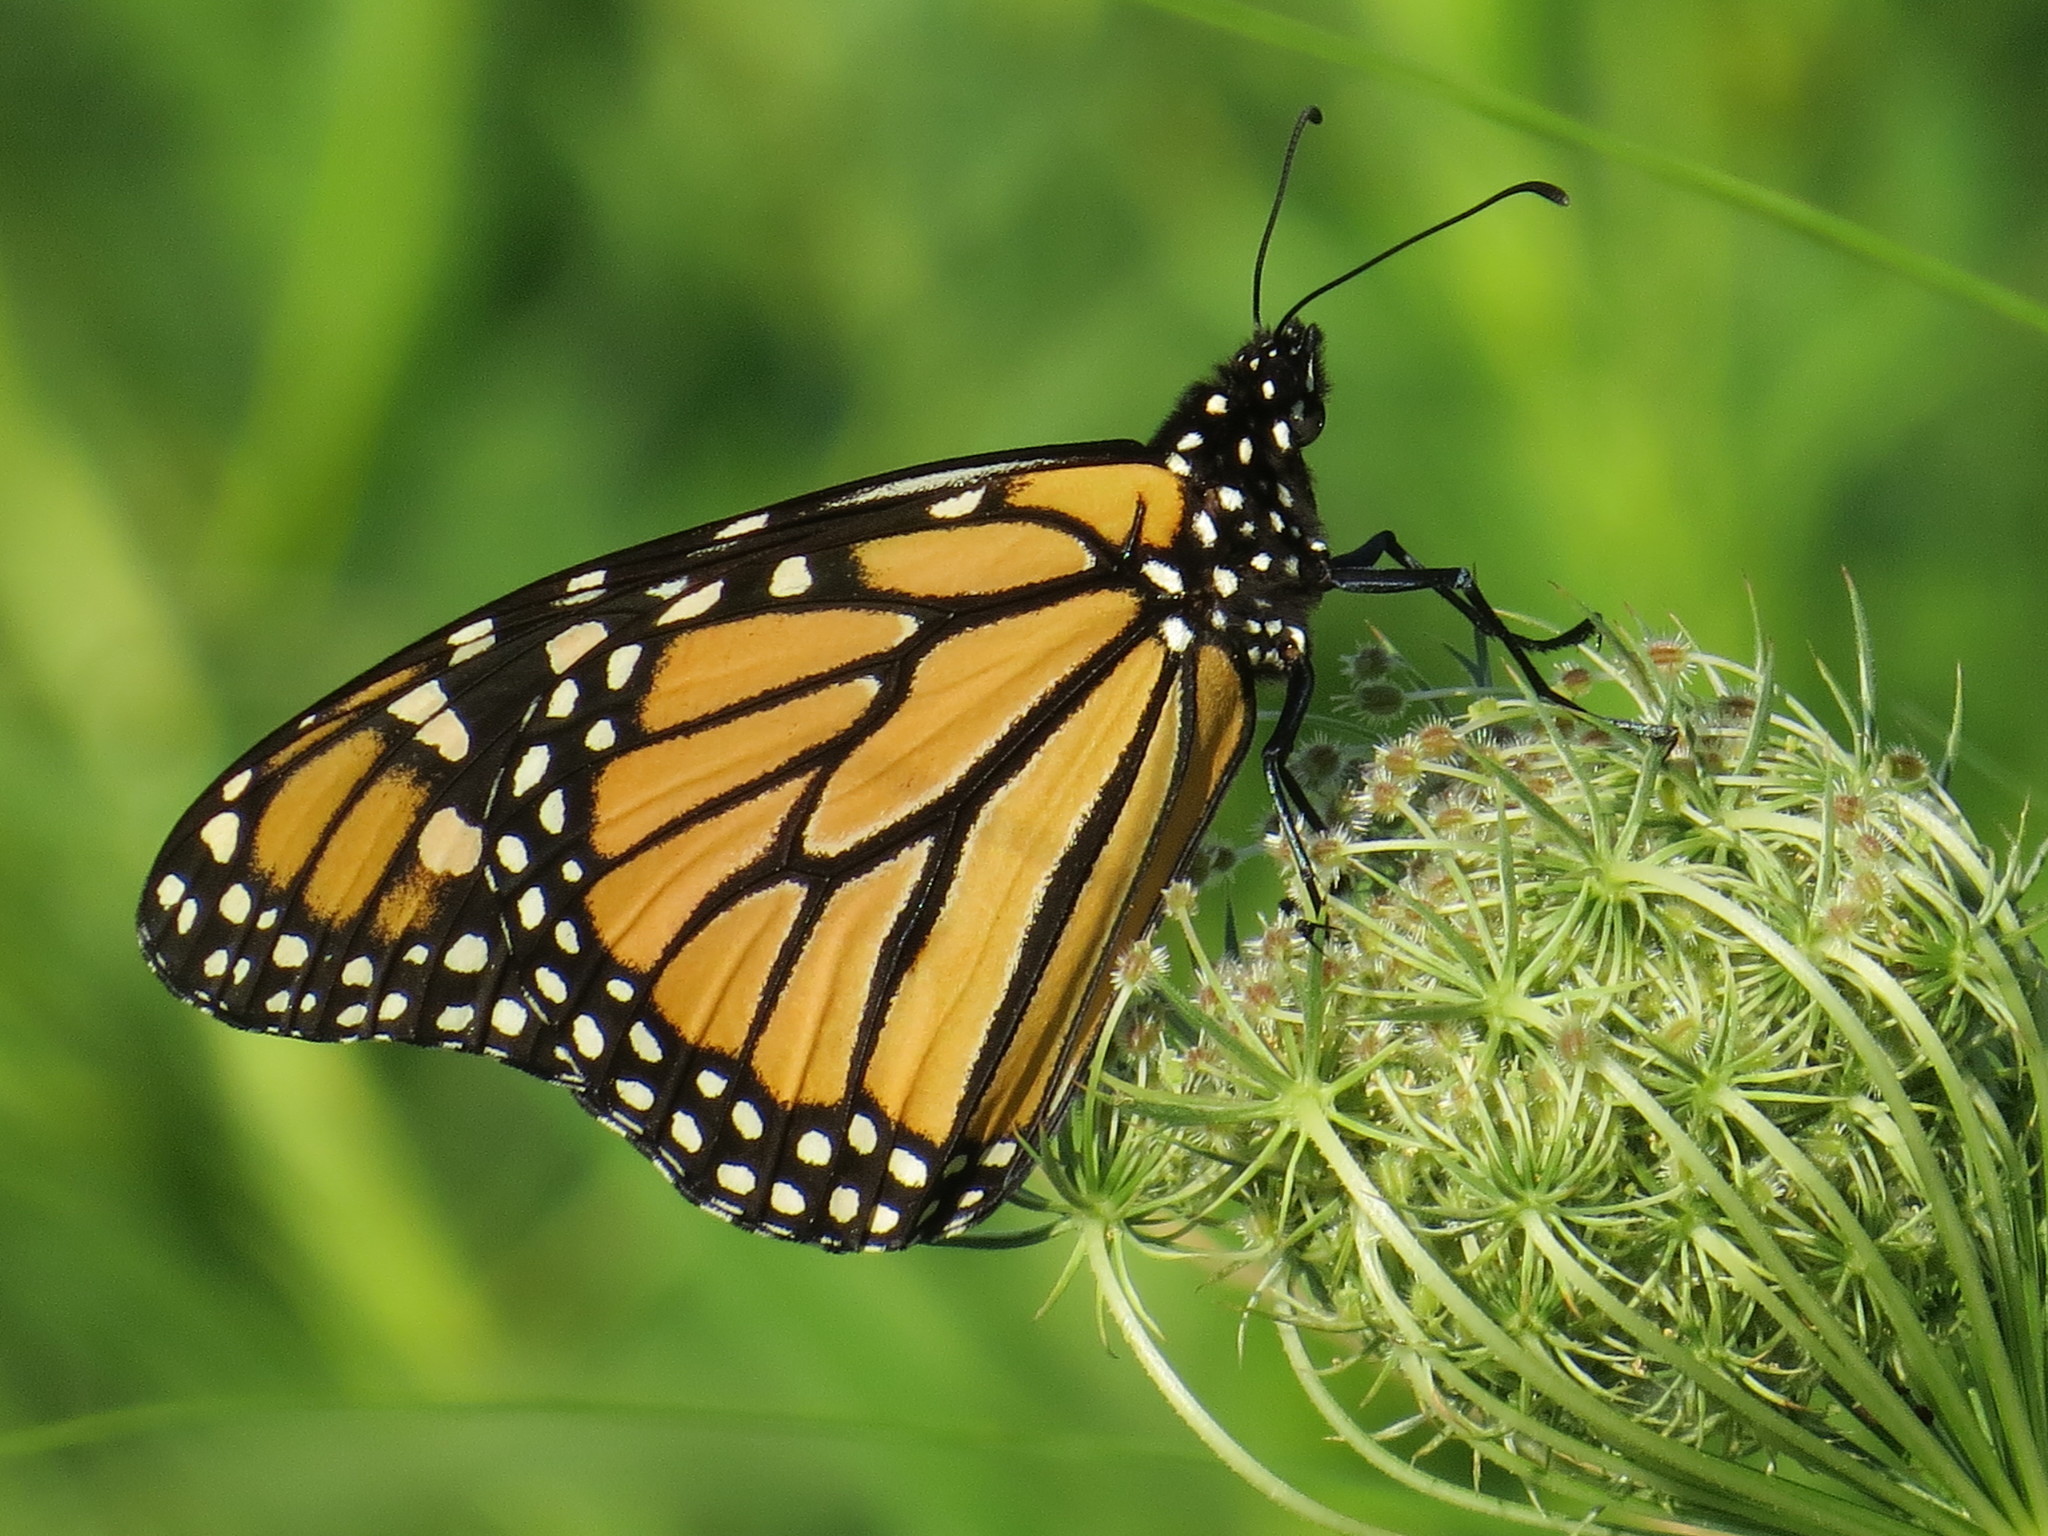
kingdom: Animalia
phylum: Arthropoda
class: Insecta
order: Lepidoptera
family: Nymphalidae
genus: Danaus
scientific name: Danaus plexippus
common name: Monarch
